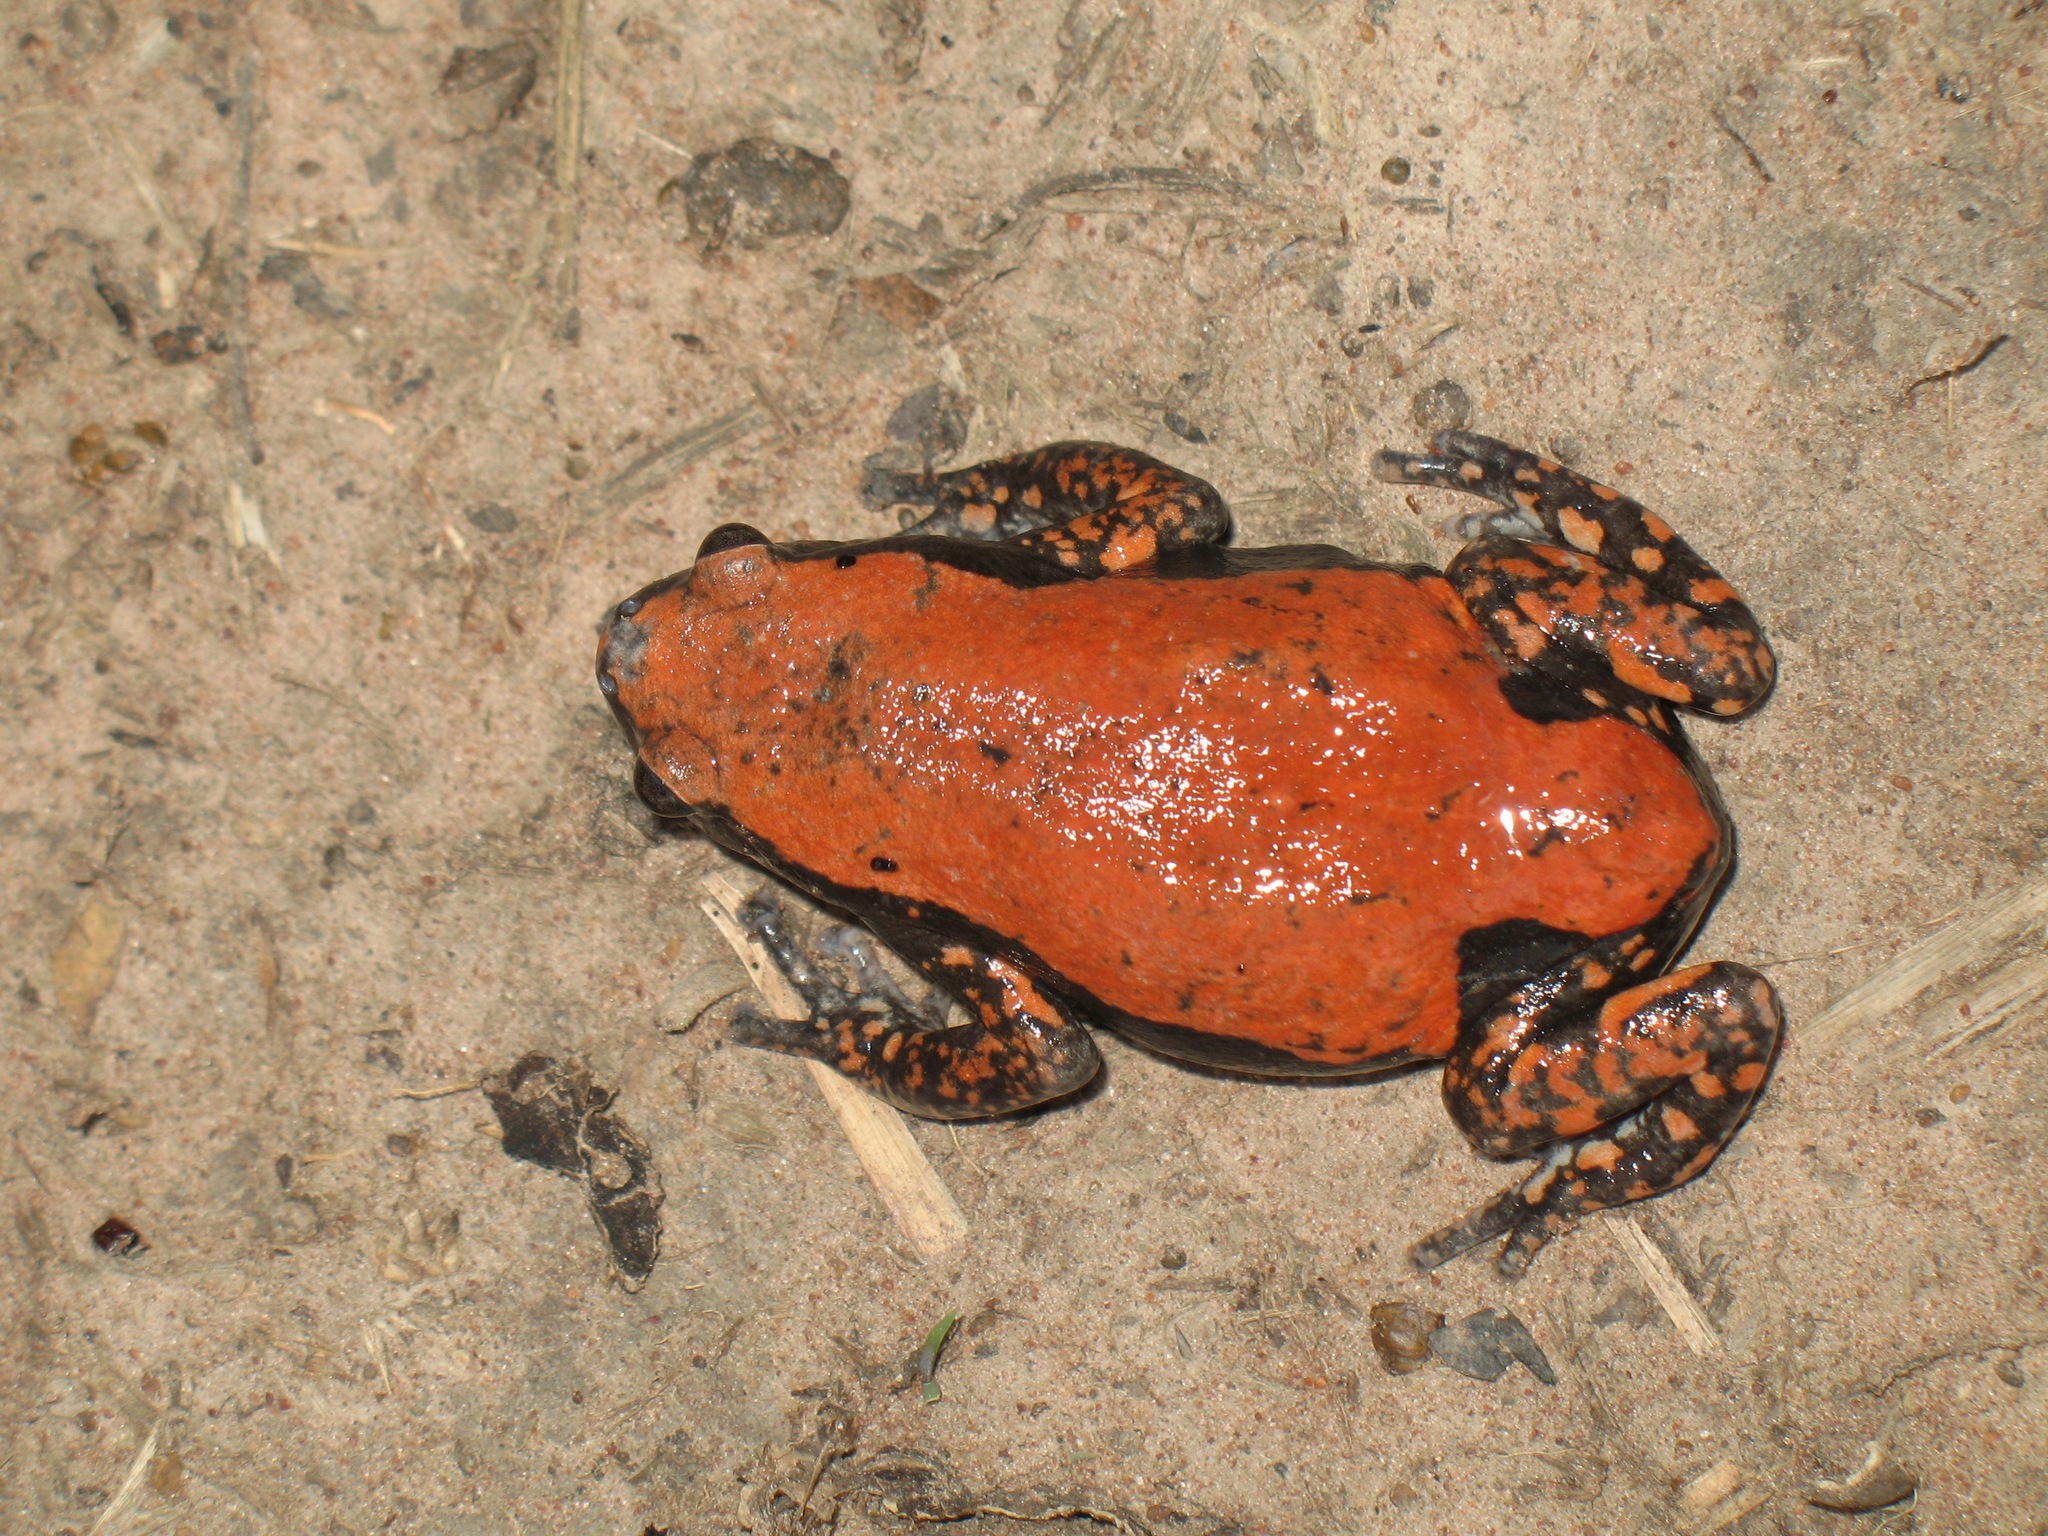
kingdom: Animalia
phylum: Chordata
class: Amphibia
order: Anura
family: Microhylidae
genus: Phrynomantis
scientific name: Phrynomantis microps
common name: Accra snake-necked frog
